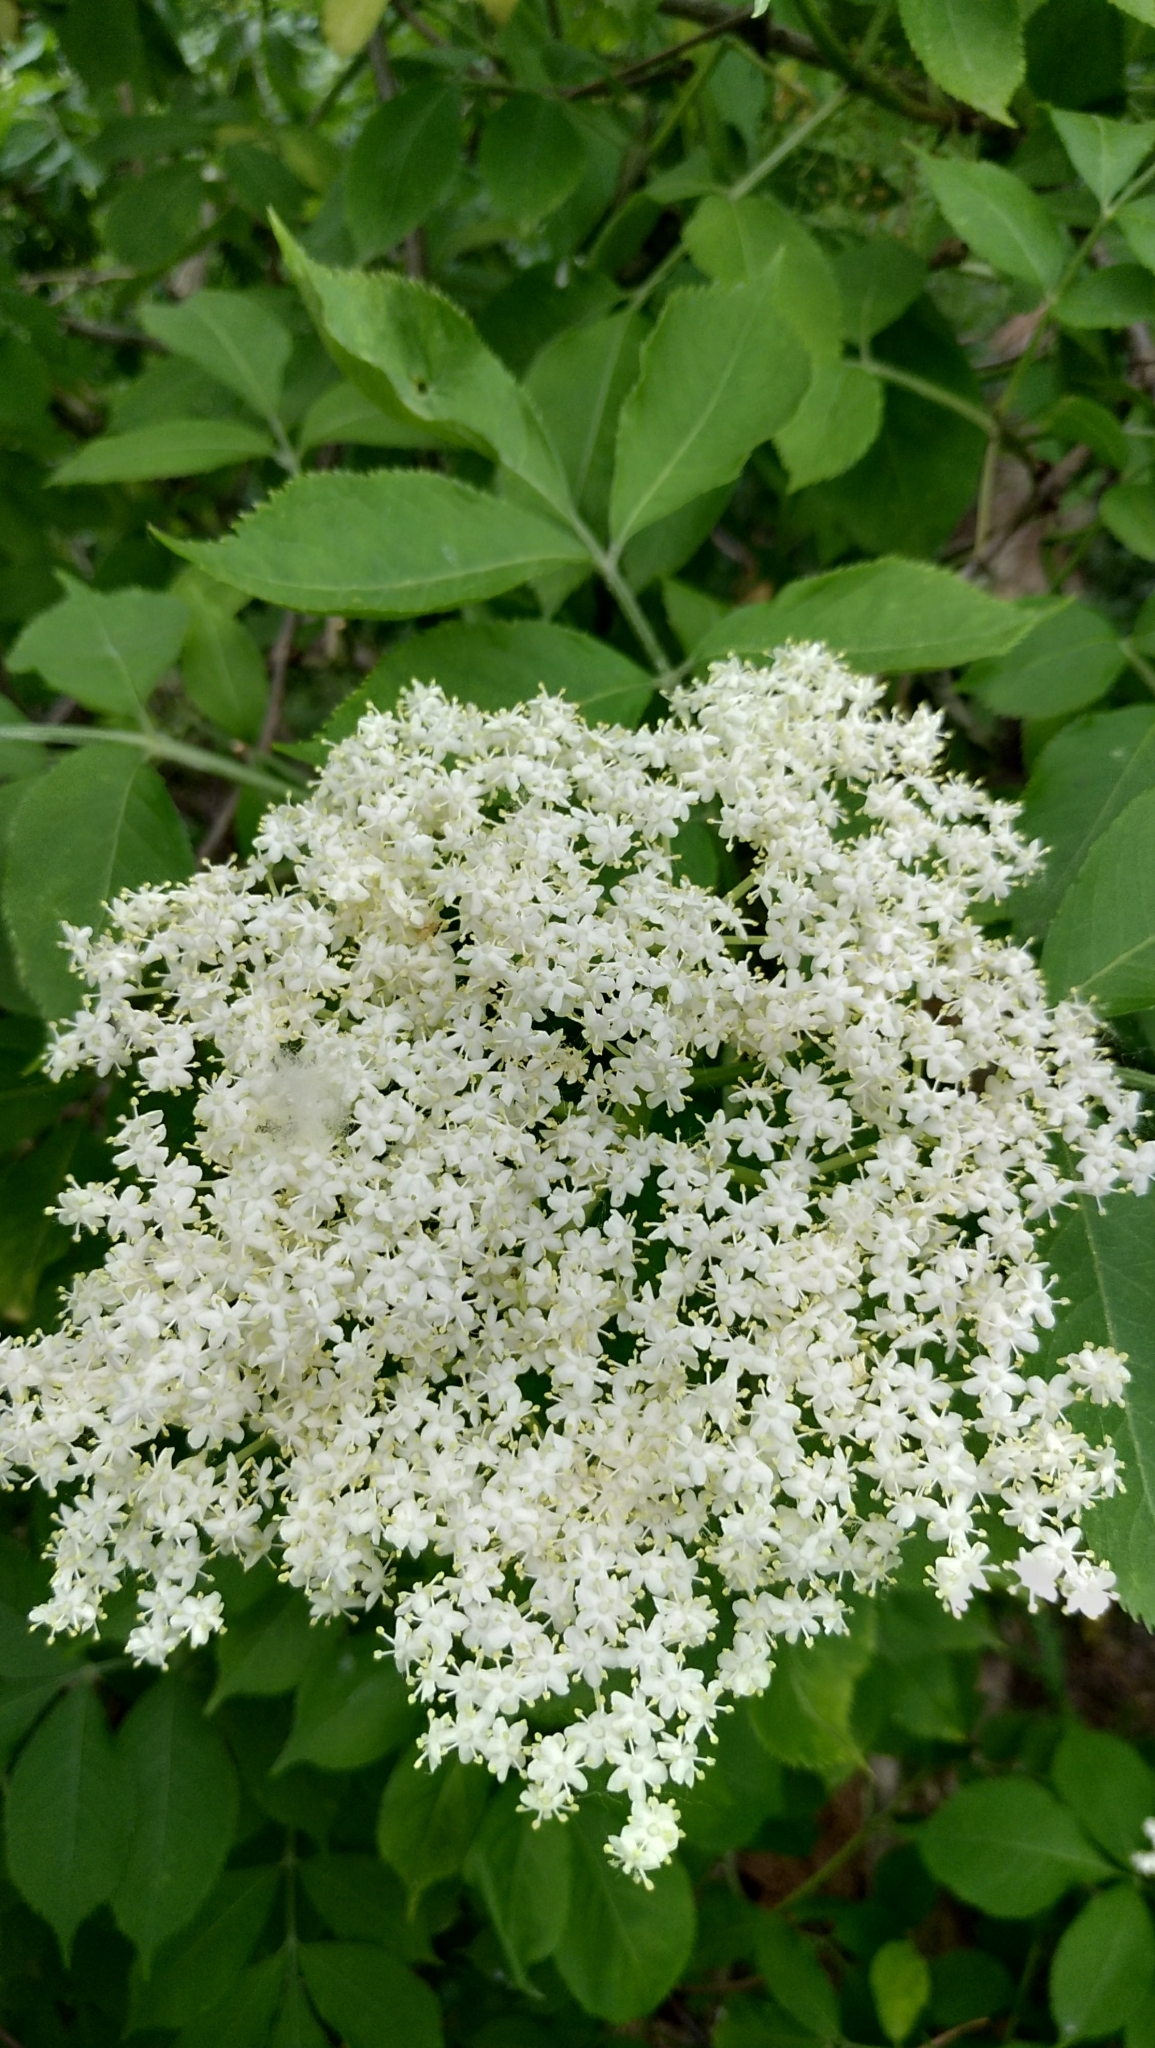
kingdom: Plantae
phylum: Tracheophyta
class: Magnoliopsida
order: Dipsacales
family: Viburnaceae
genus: Sambucus
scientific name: Sambucus nigra
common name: Elder
